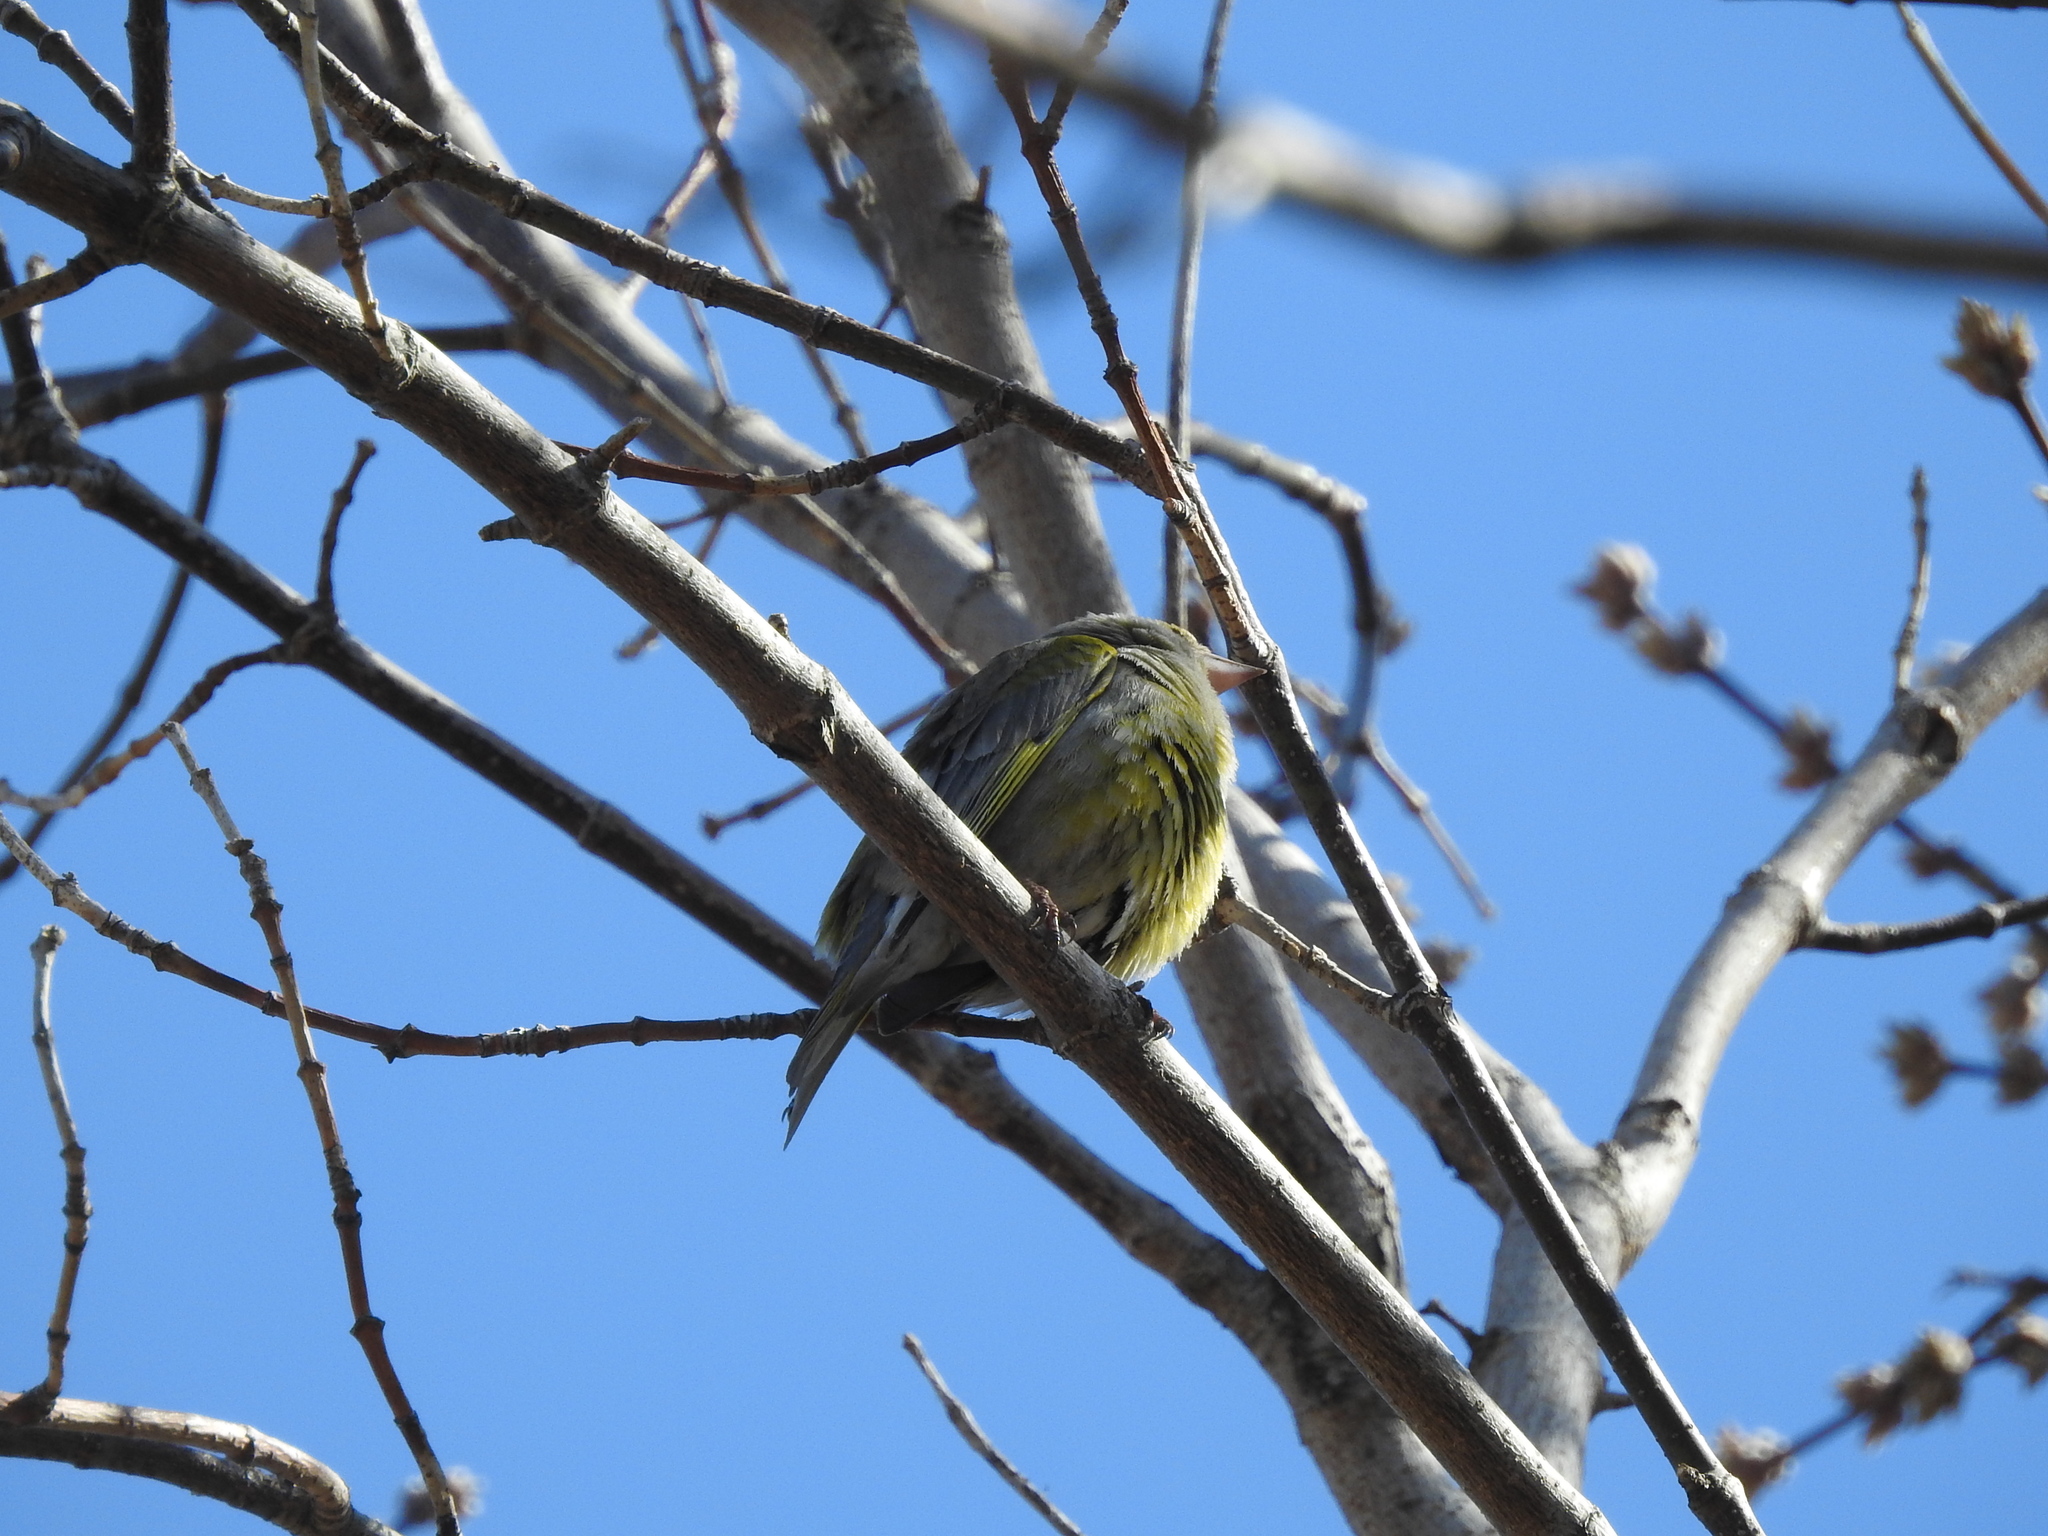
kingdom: Plantae
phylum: Tracheophyta
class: Liliopsida
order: Poales
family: Poaceae
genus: Chloris
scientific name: Chloris chloris
